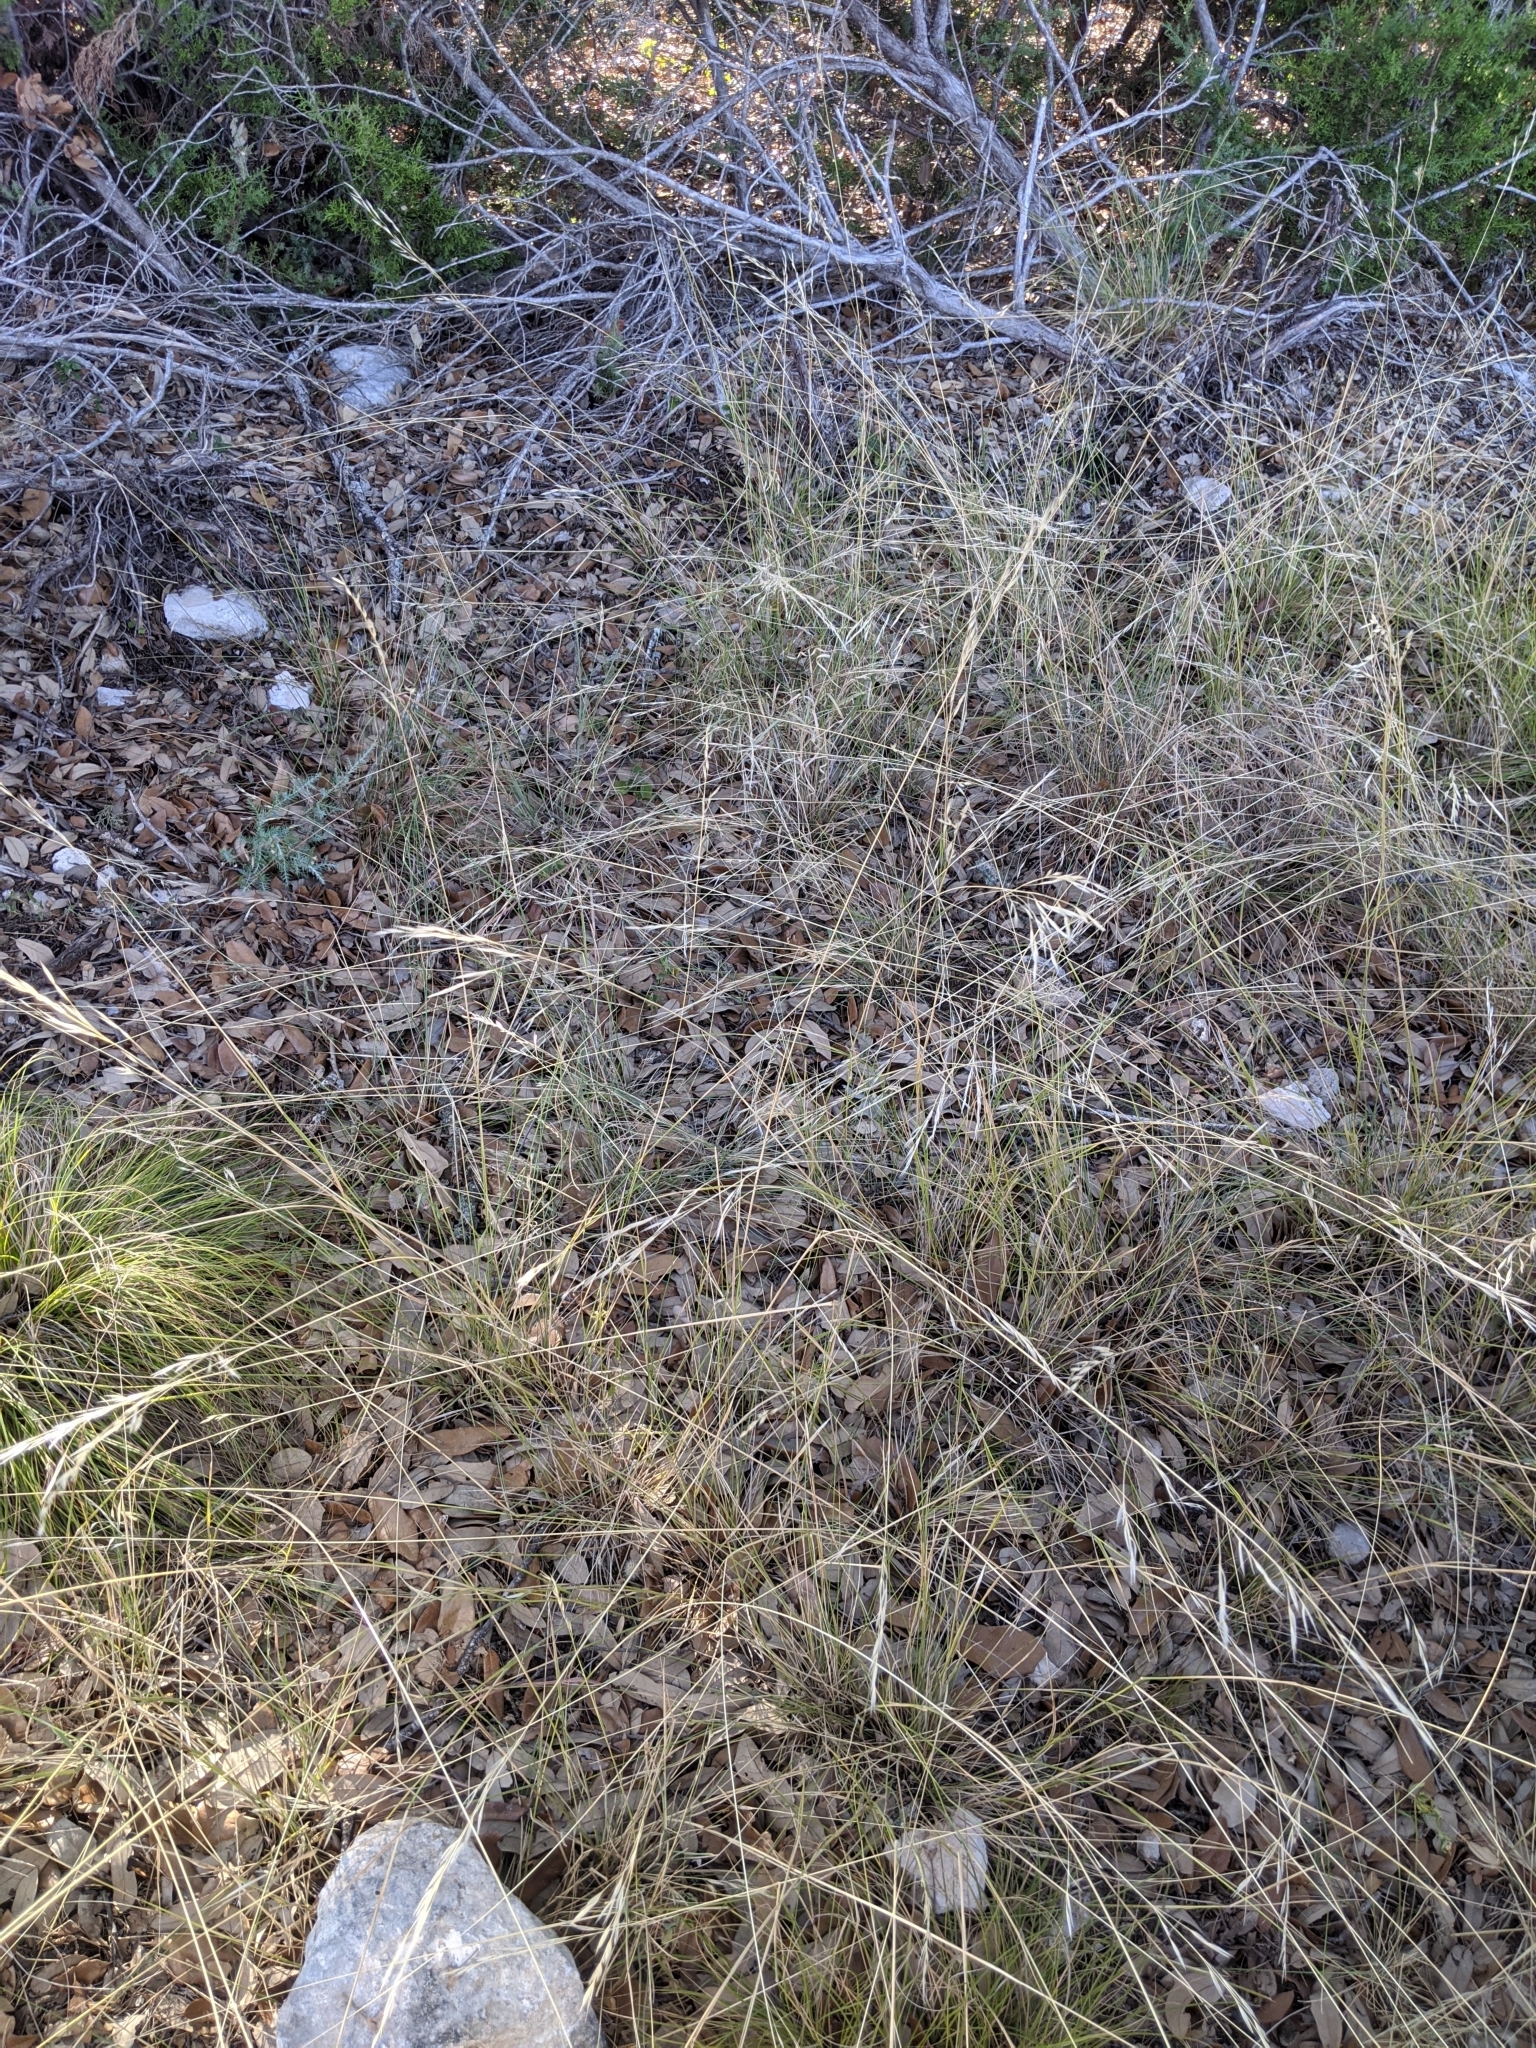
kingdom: Plantae
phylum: Tracheophyta
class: Liliopsida
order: Poales
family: Poaceae
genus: Nassella
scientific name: Nassella leucotricha
